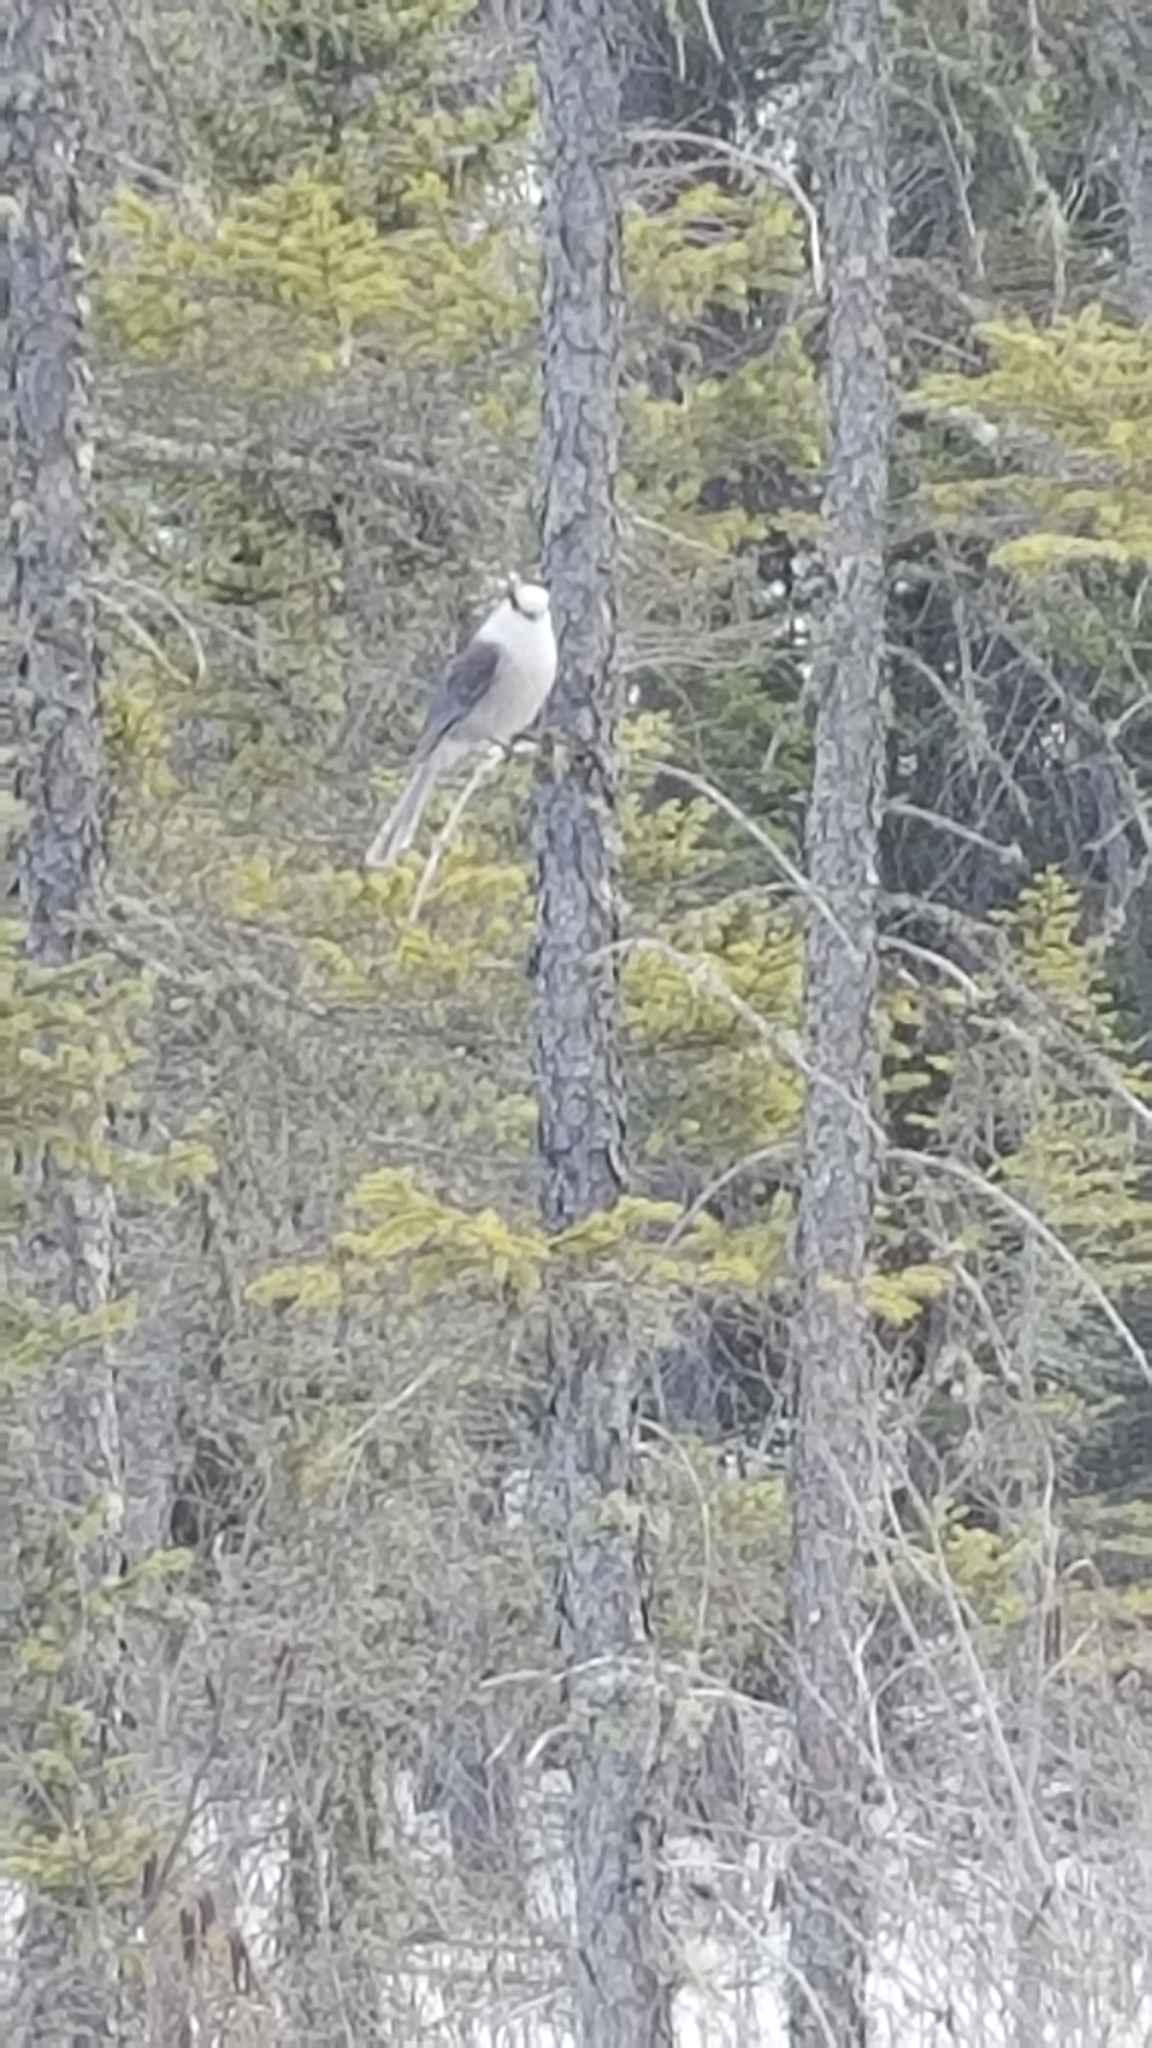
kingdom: Animalia
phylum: Chordata
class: Aves
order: Passeriformes
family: Corvidae
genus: Perisoreus
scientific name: Perisoreus canadensis
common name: Gray jay
